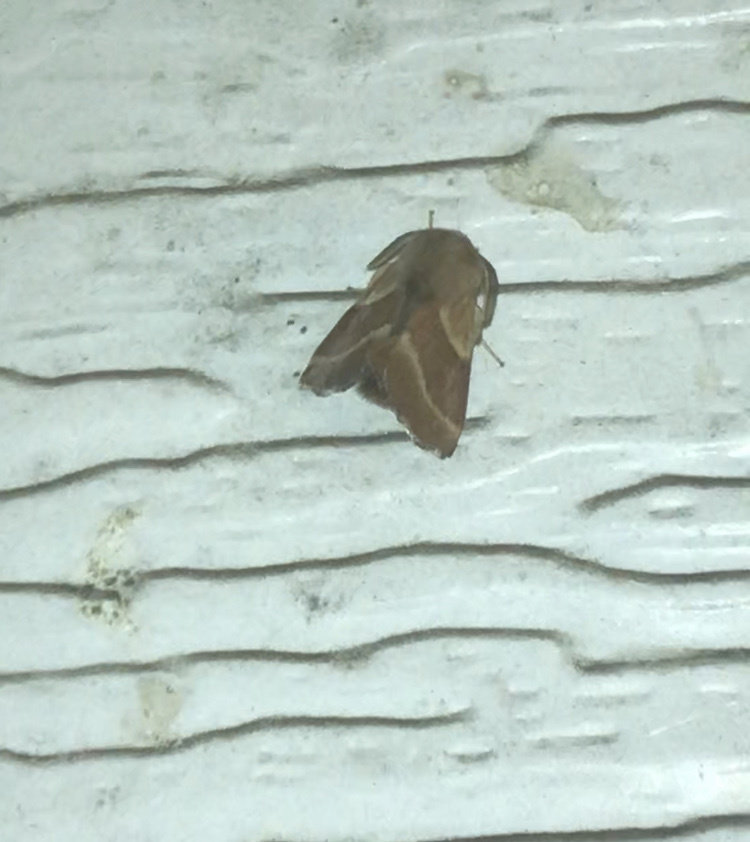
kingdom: Animalia
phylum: Arthropoda
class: Insecta
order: Lepidoptera
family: Lasiocampidae
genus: Malacosoma
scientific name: Malacosoma californica
